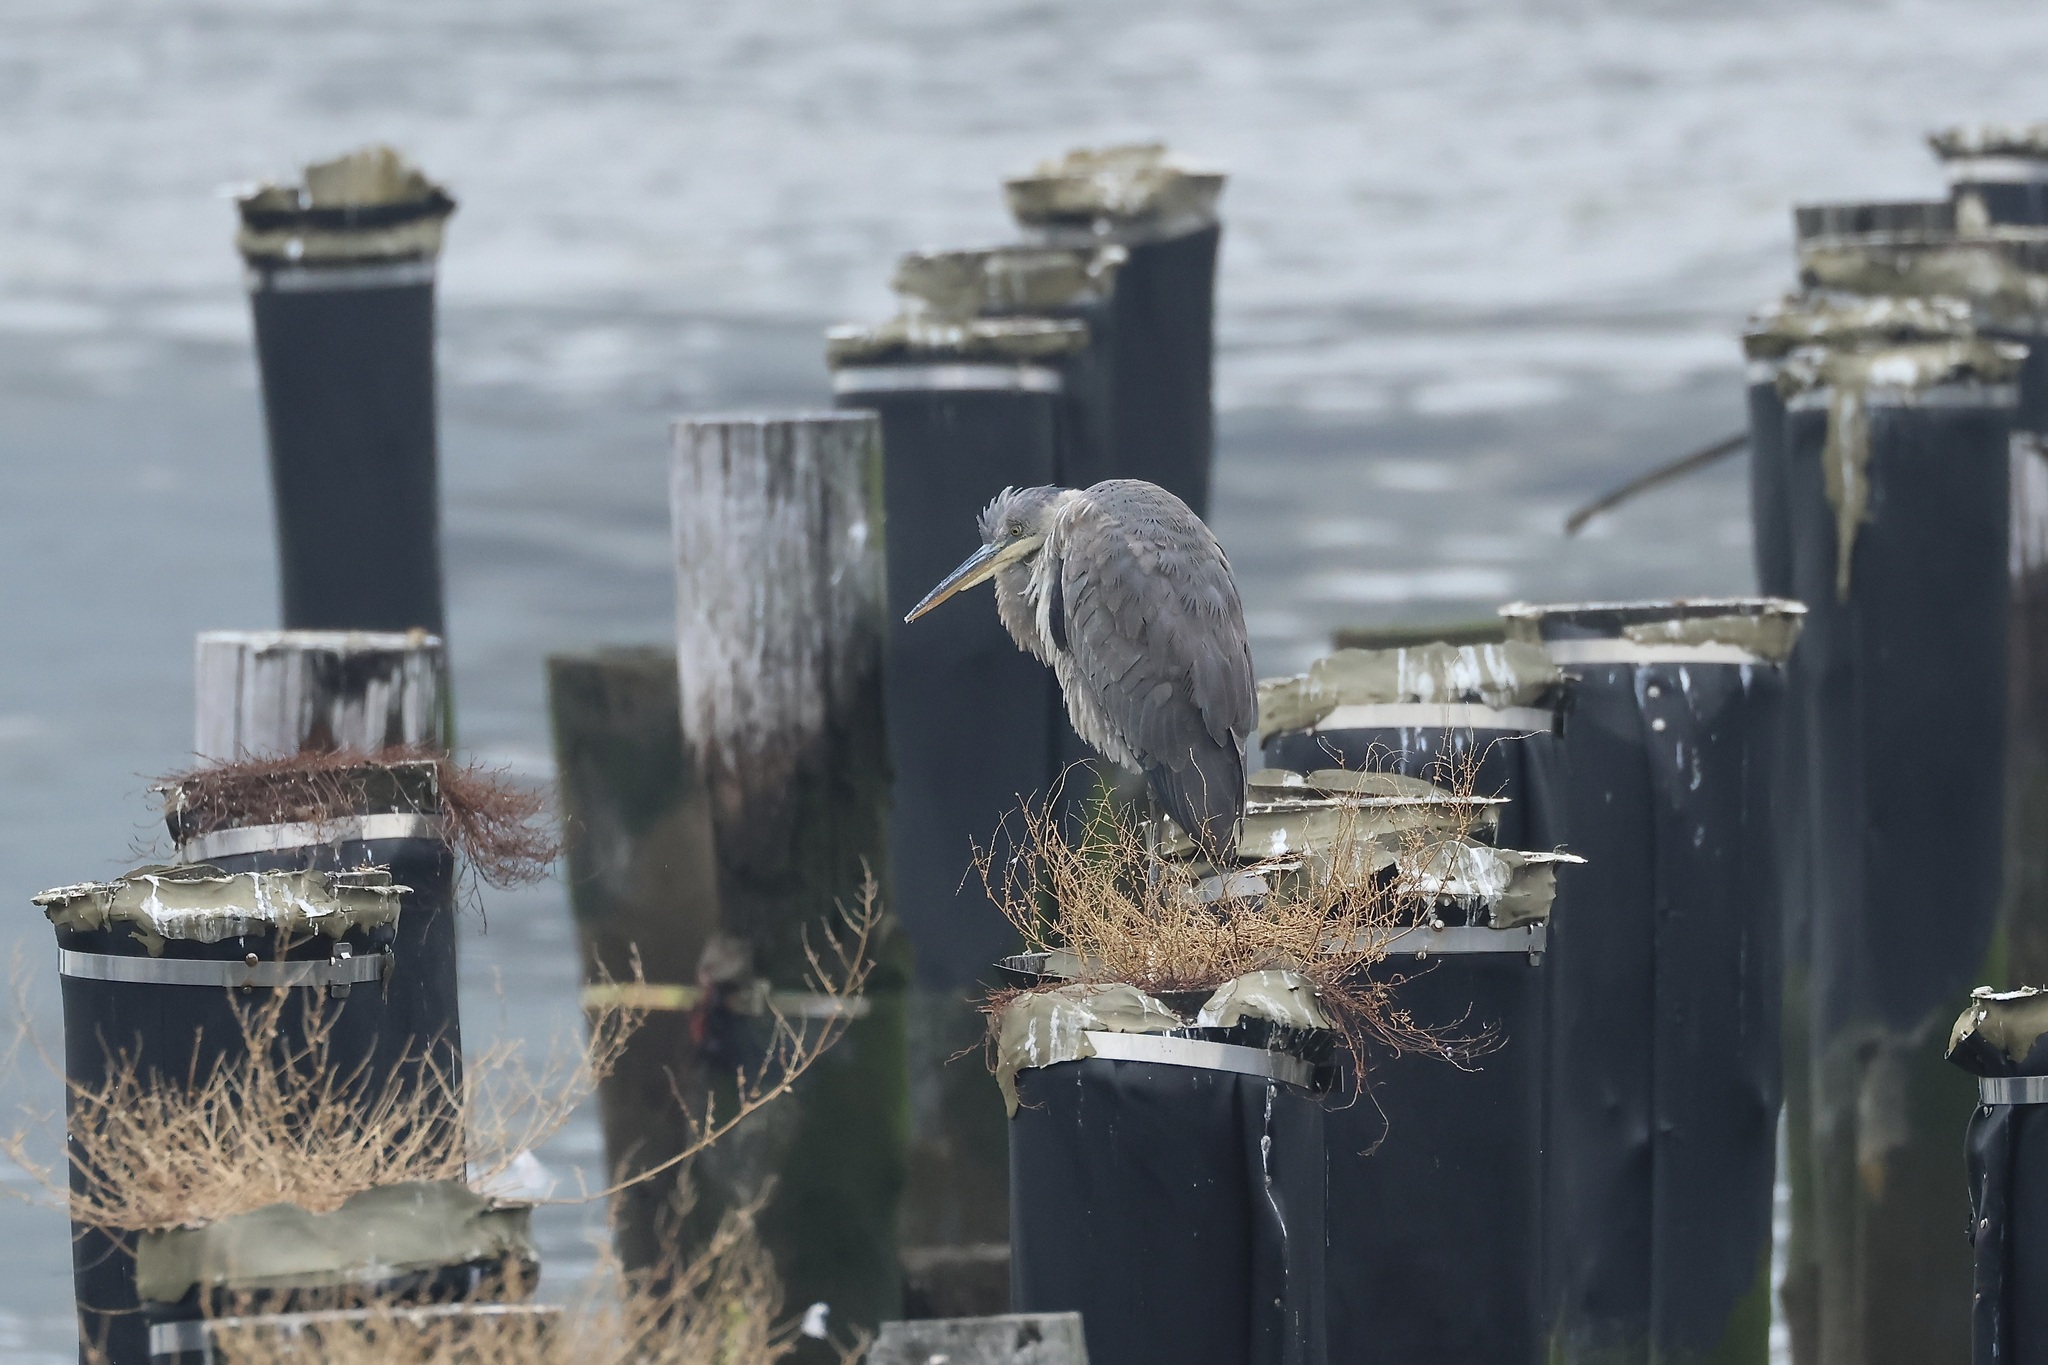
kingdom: Animalia
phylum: Chordata
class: Aves
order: Pelecaniformes
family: Ardeidae
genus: Ardea
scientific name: Ardea herodias
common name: Great blue heron
